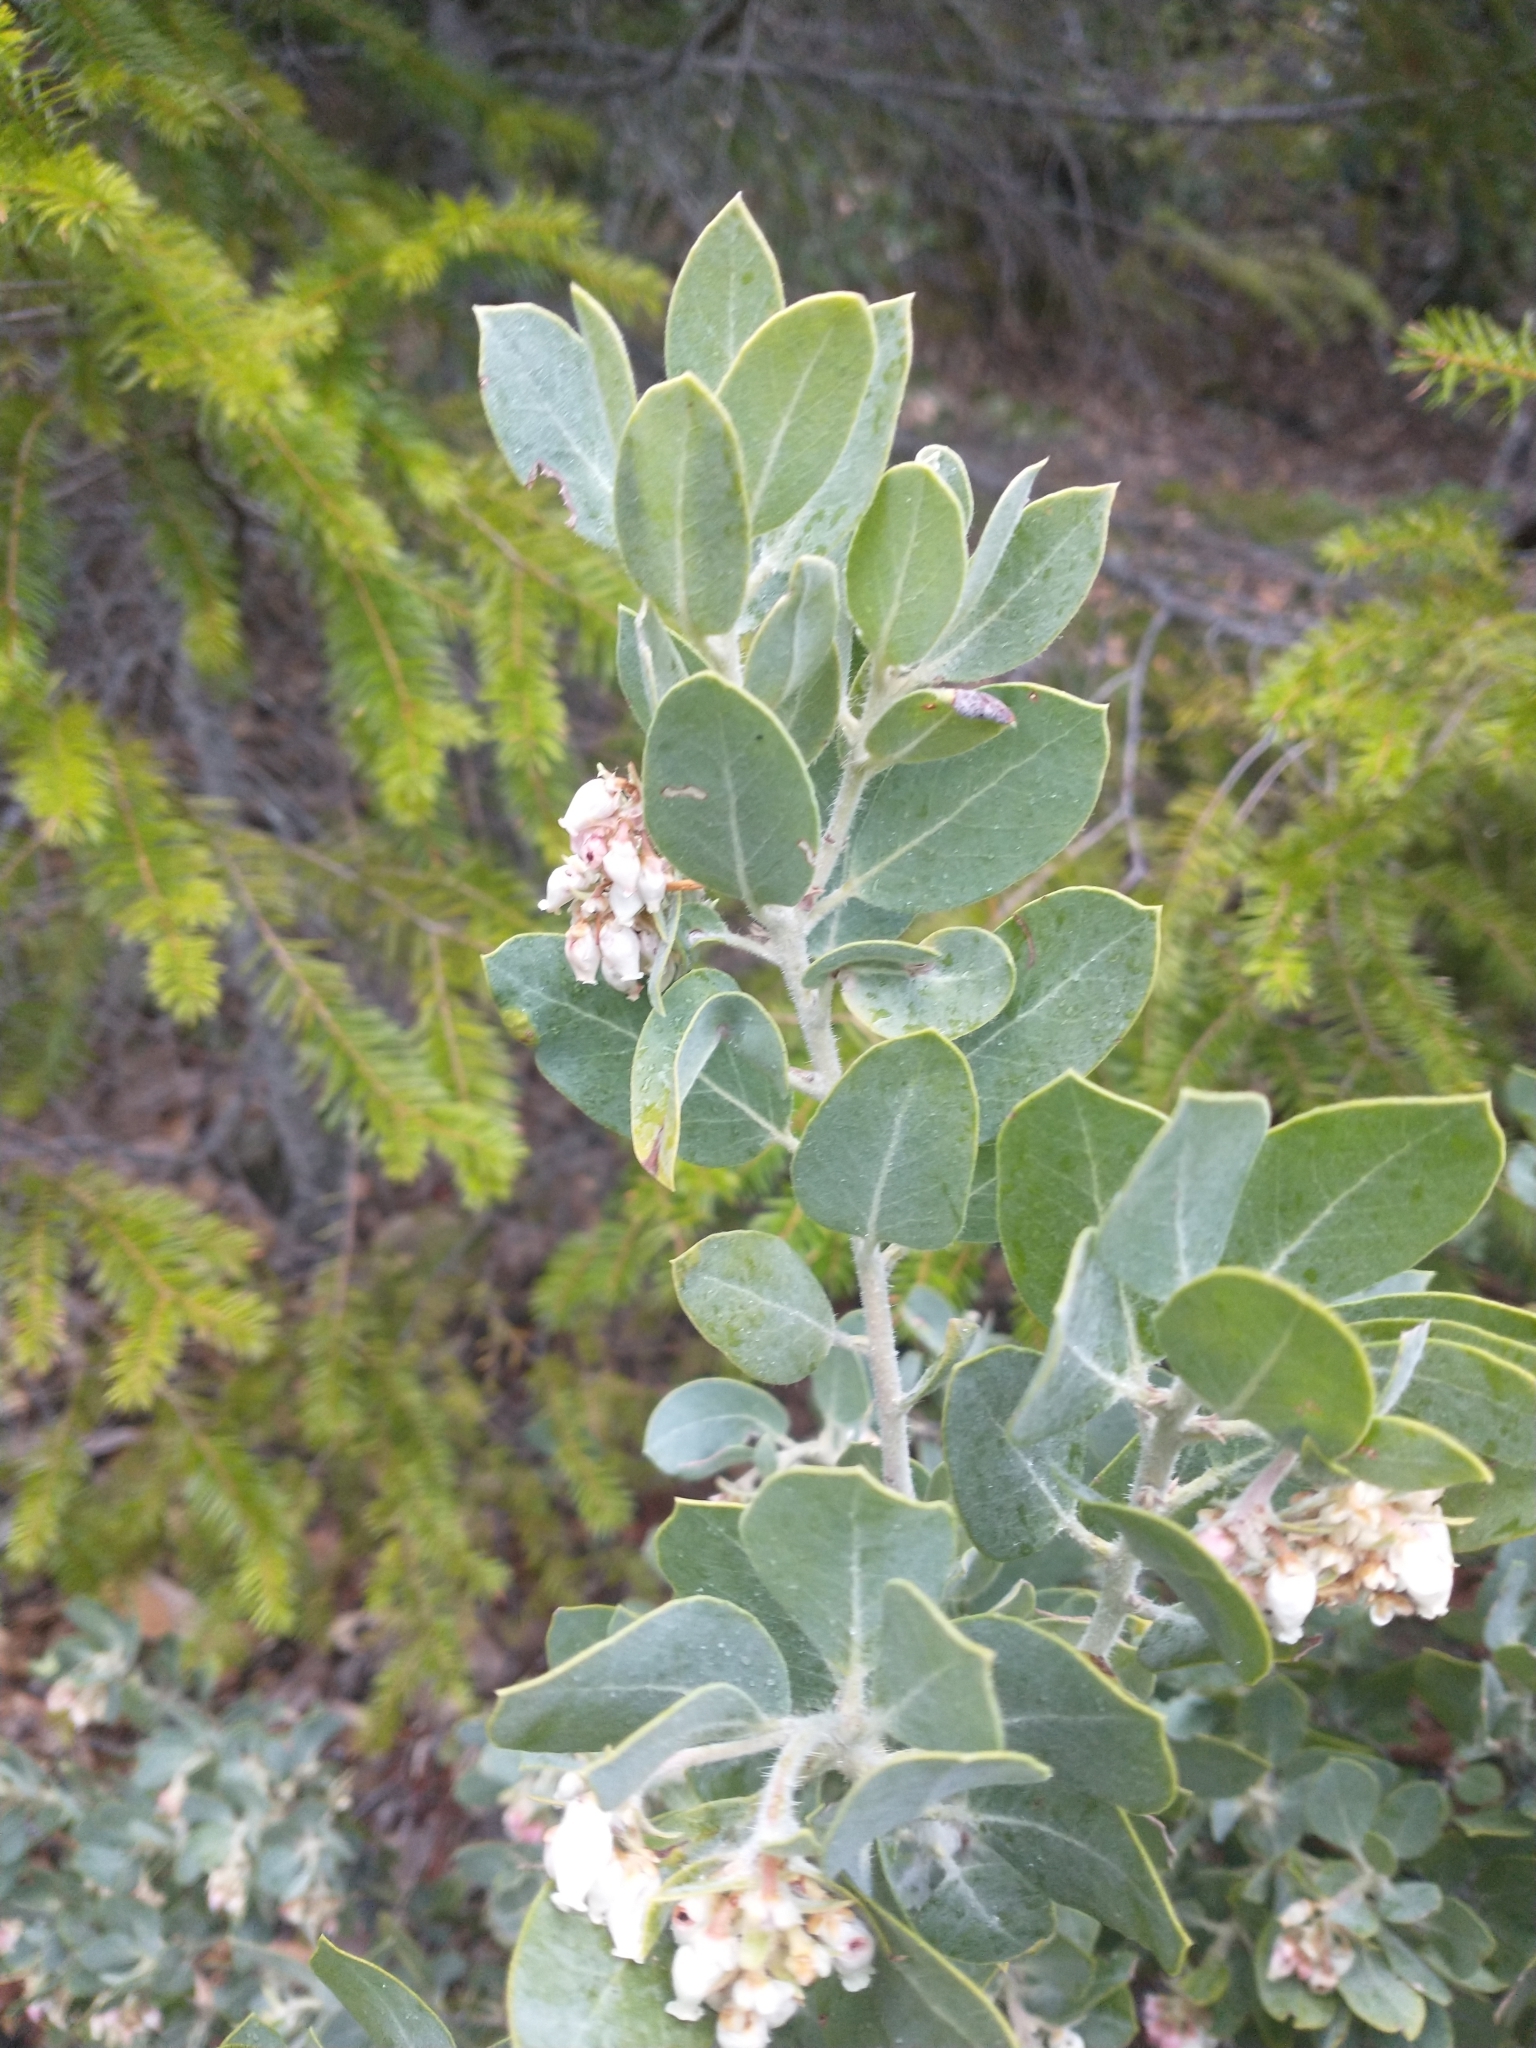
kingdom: Plantae
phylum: Tracheophyta
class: Magnoliopsida
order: Ericales
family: Ericaceae
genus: Arctostaphylos
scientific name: Arctostaphylos nortensis
